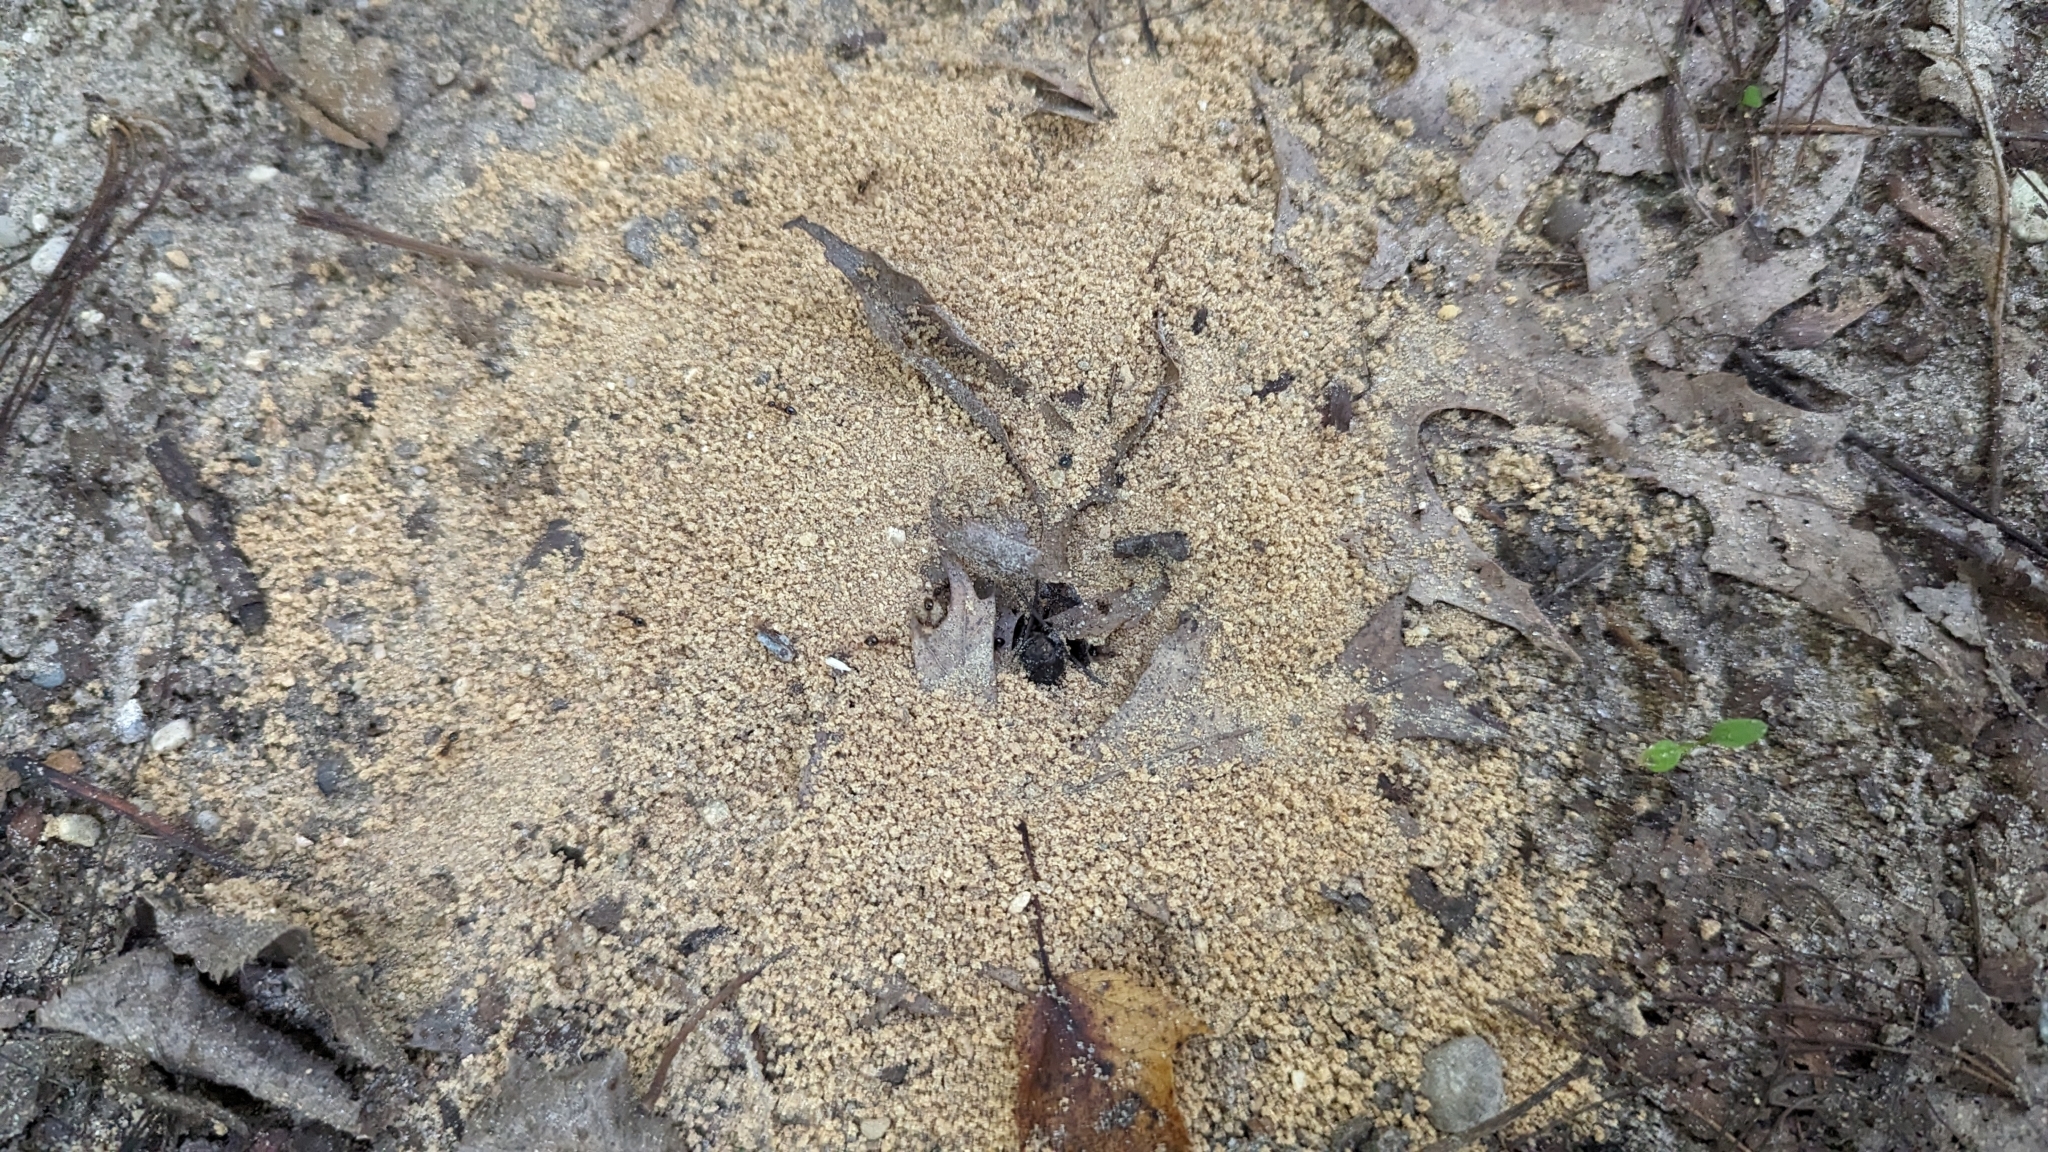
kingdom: Animalia
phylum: Arthropoda
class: Insecta
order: Hymenoptera
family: Formicidae
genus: Prenolepis
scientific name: Prenolepis imparis
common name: Small honey ant
